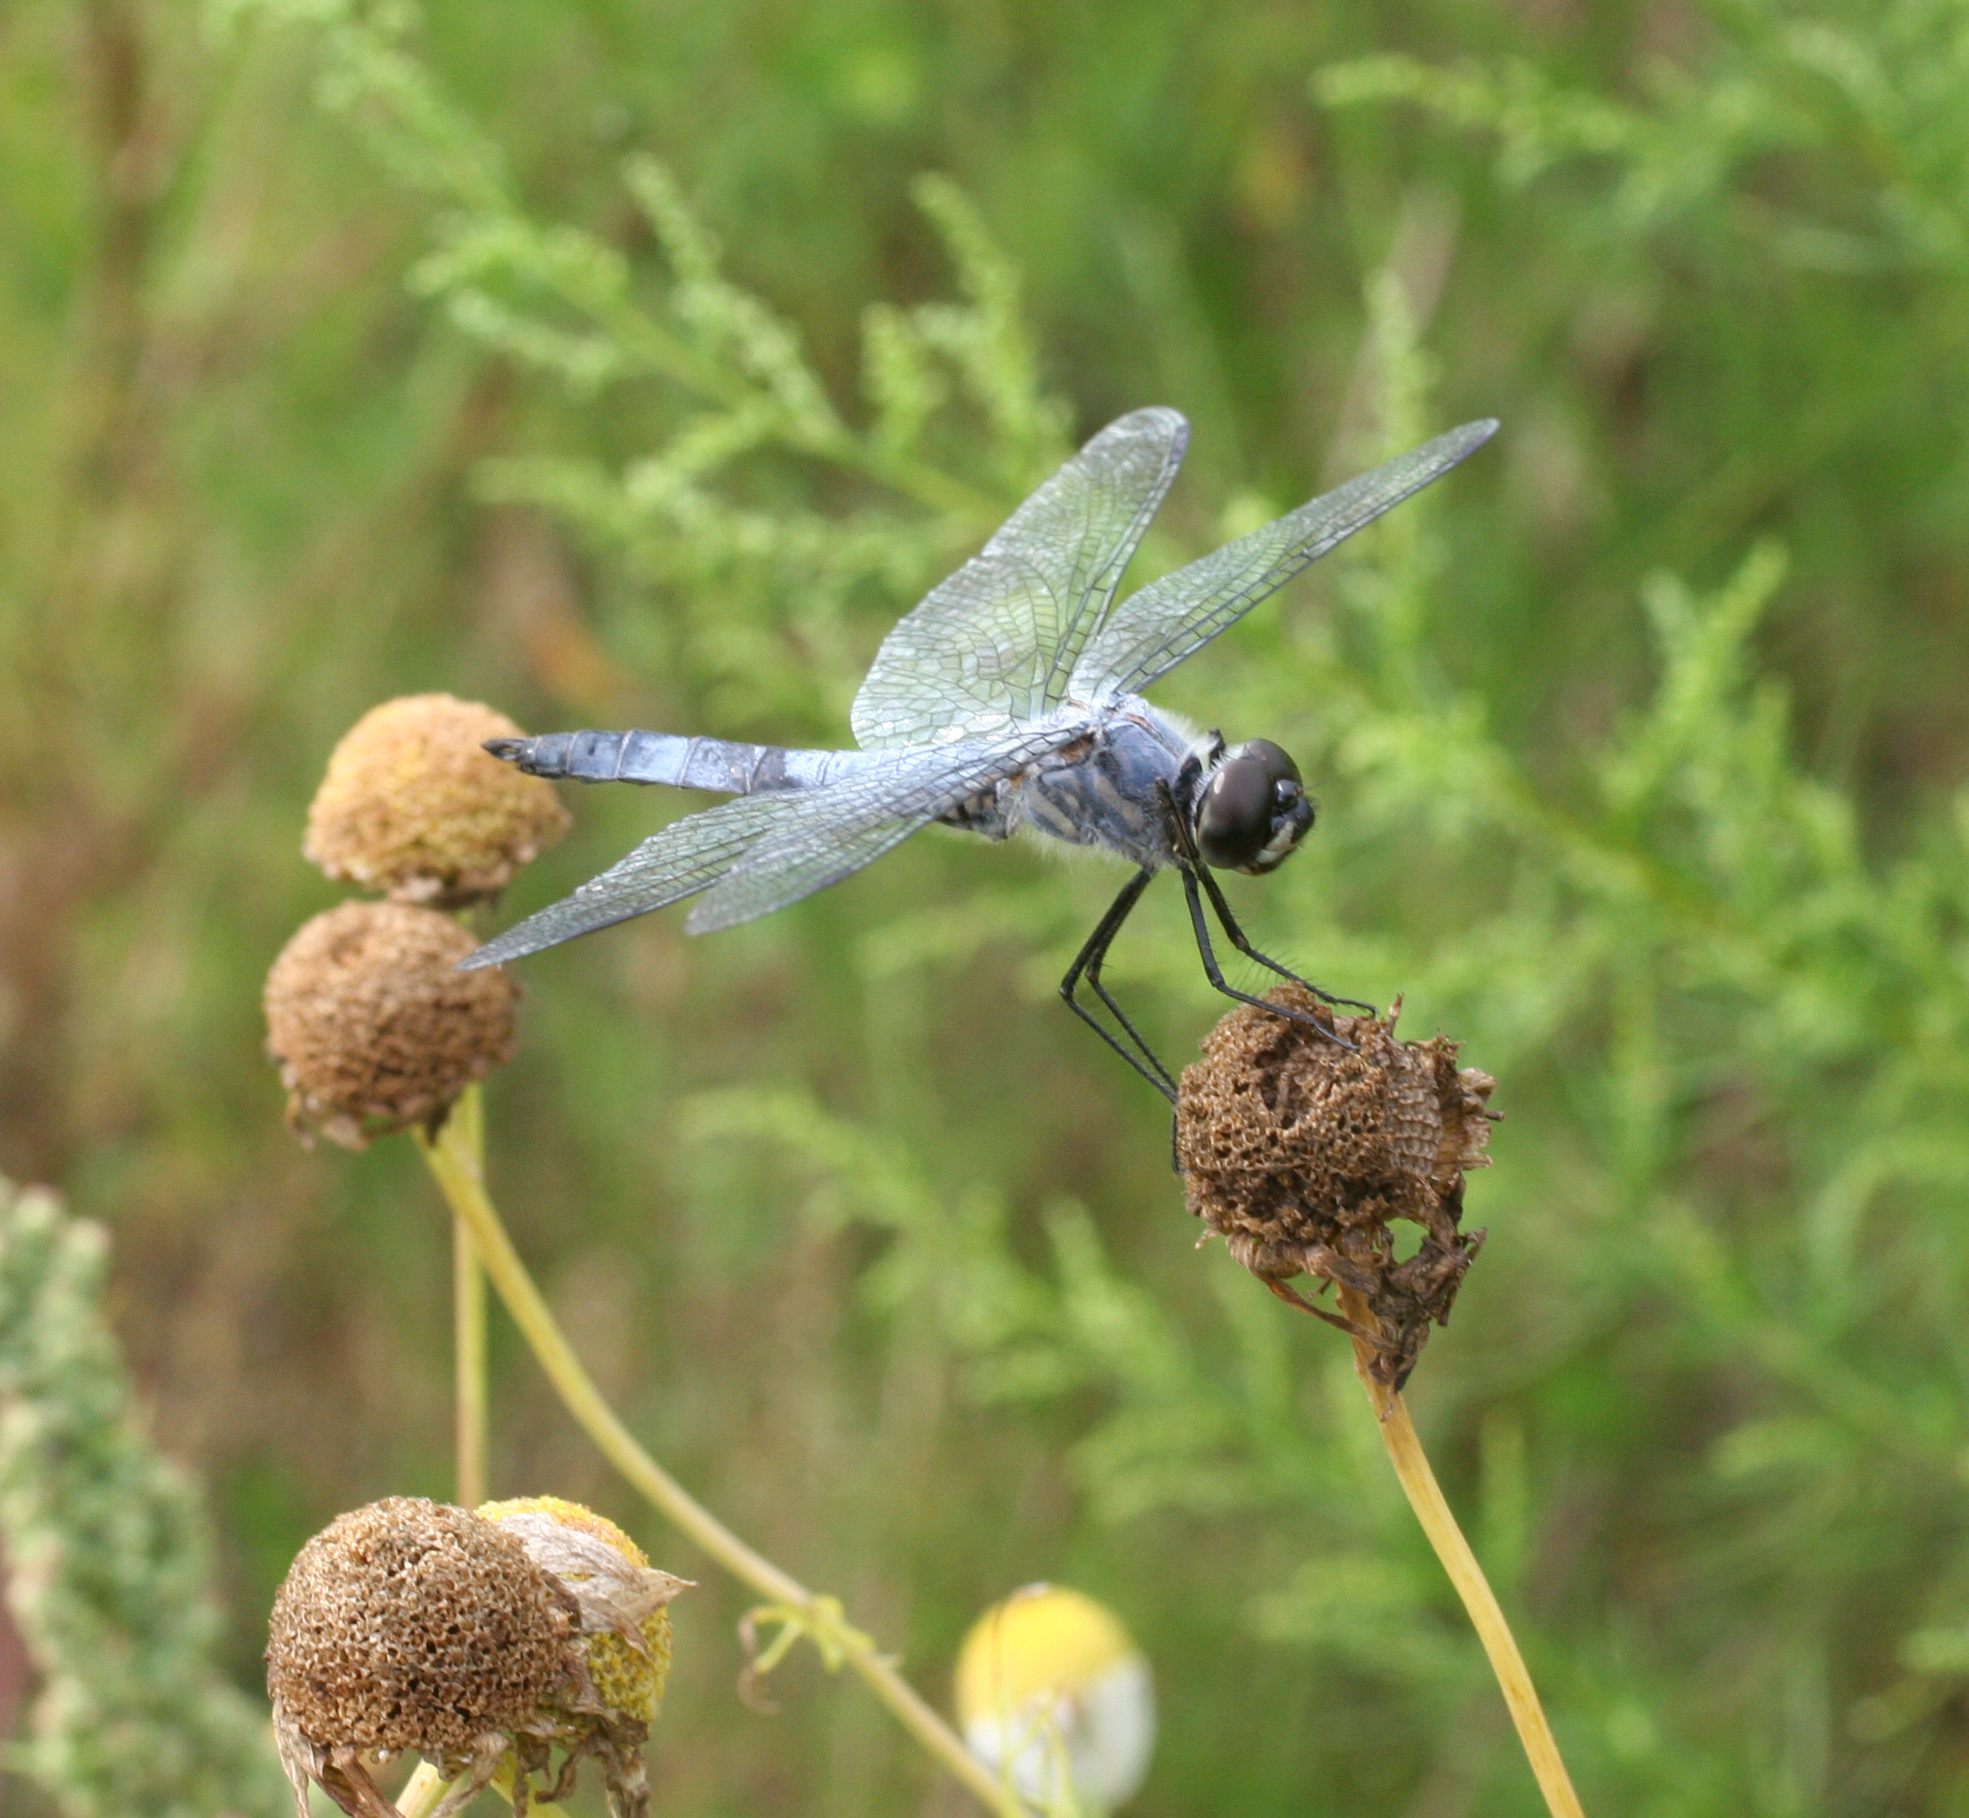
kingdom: Animalia
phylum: Arthropoda
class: Insecta
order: Odonata
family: Libellulidae
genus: Deielia
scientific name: Deielia phaon
